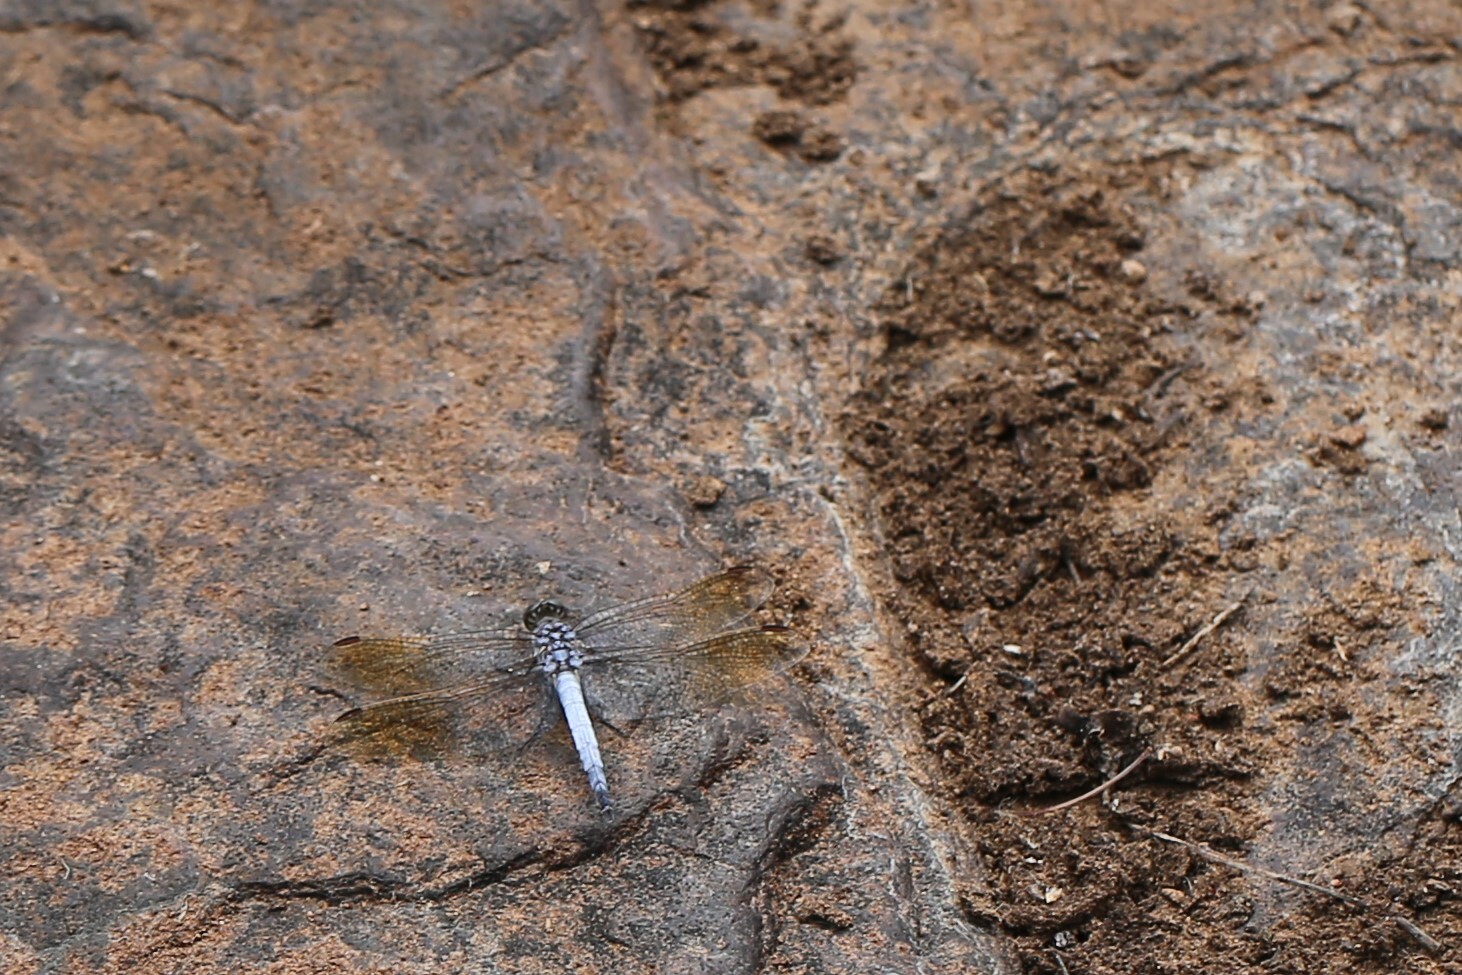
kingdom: Animalia
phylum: Arthropoda
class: Insecta
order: Odonata
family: Libellulidae
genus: Orthetrum
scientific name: Orthetrum caledonicum
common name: Blue skimmer
